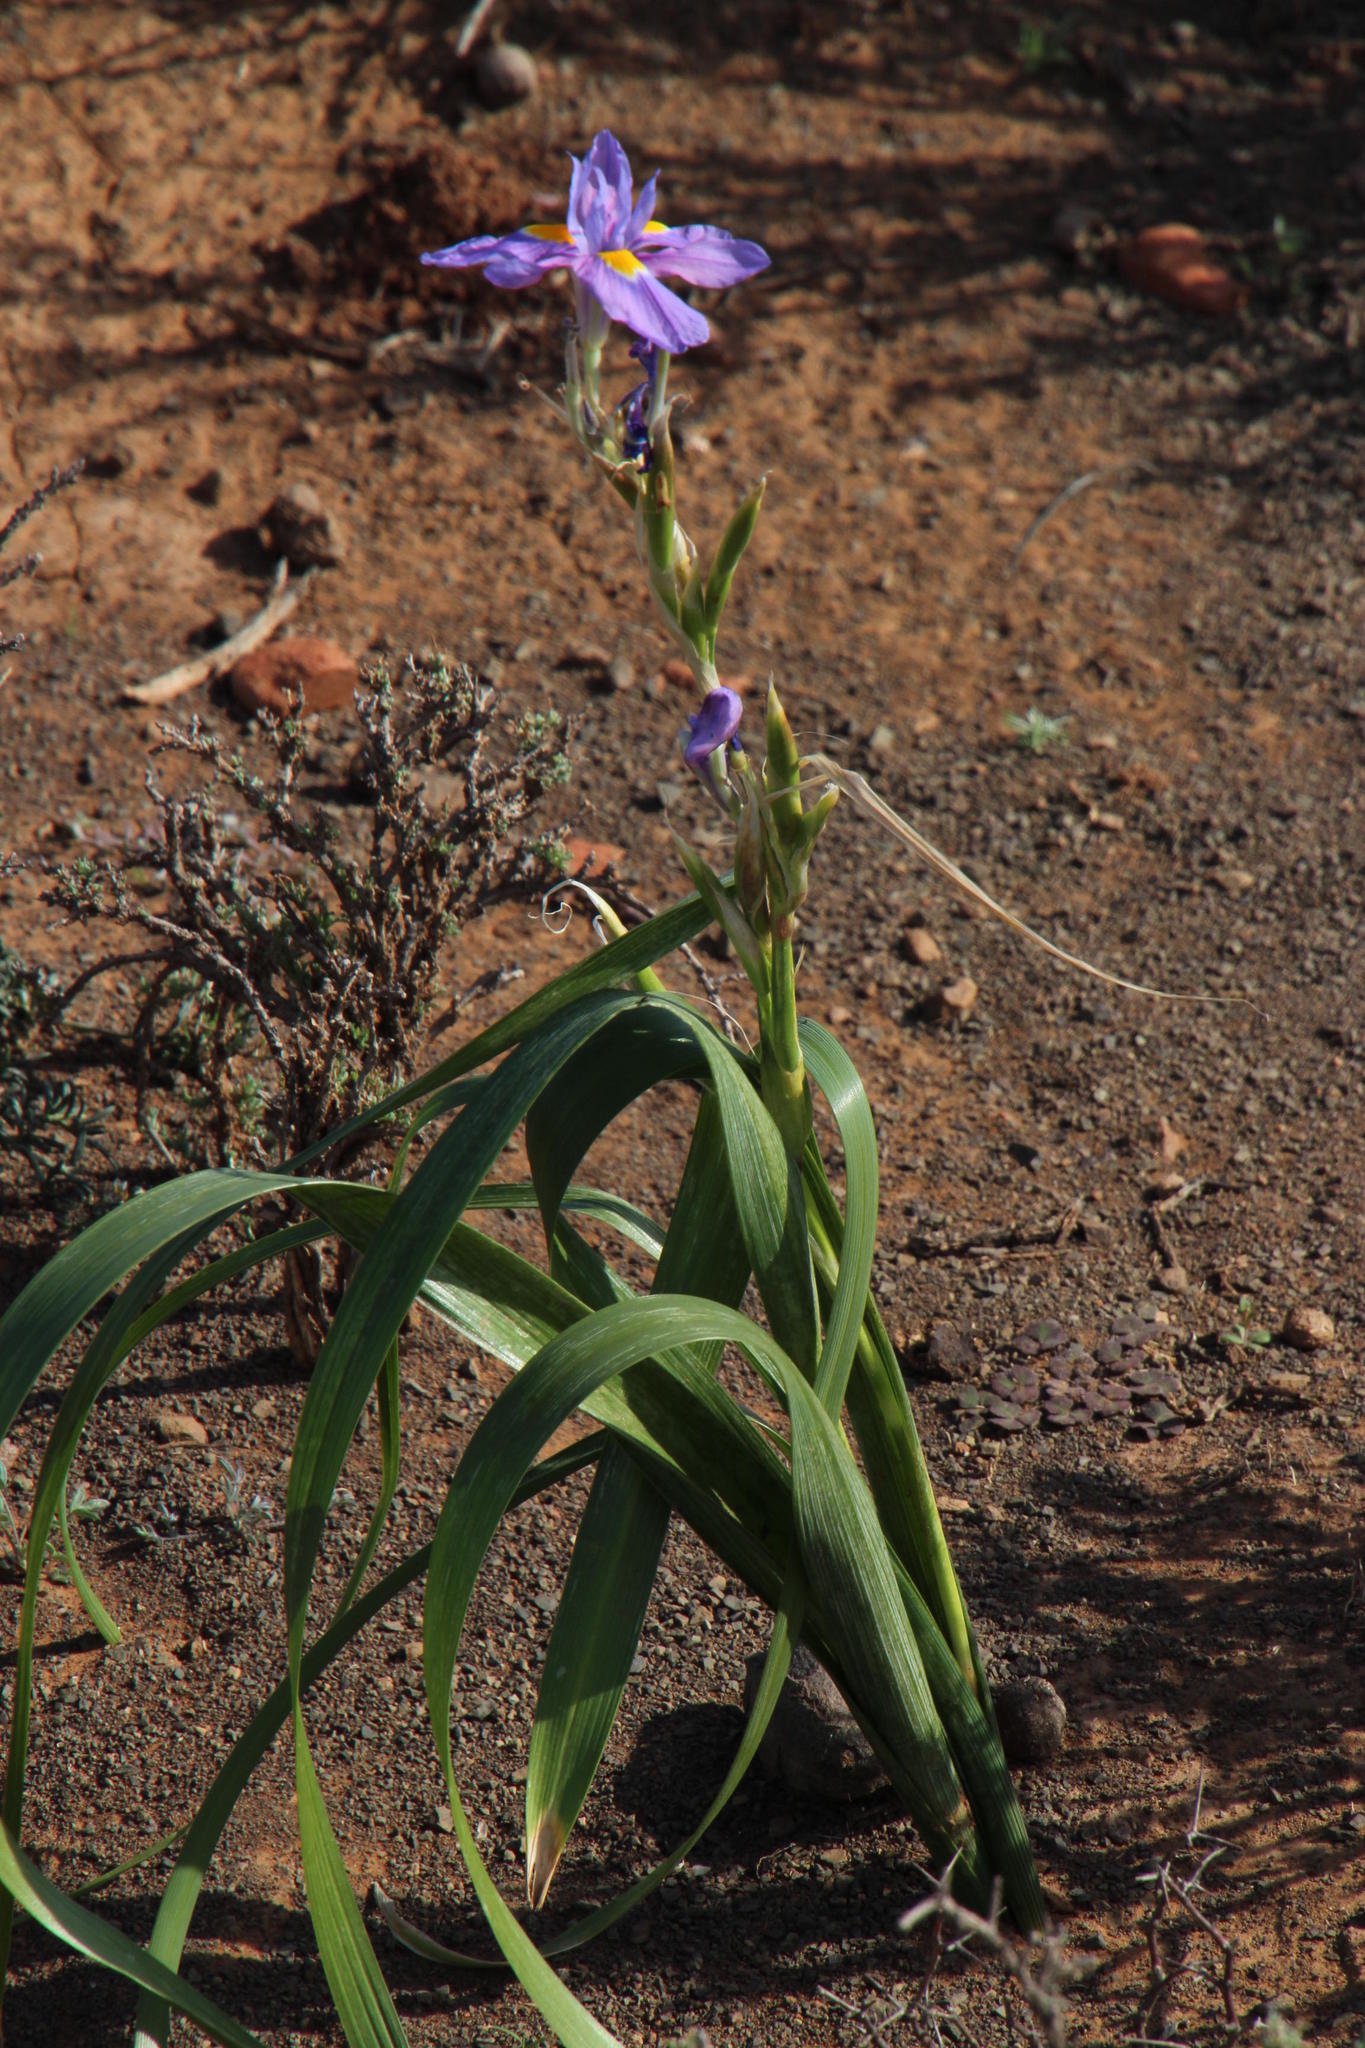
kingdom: Plantae
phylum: Tracheophyta
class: Liliopsida
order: Asparagales
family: Iridaceae
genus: Moraea
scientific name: Moraea polystachya
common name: Blue-tulip
